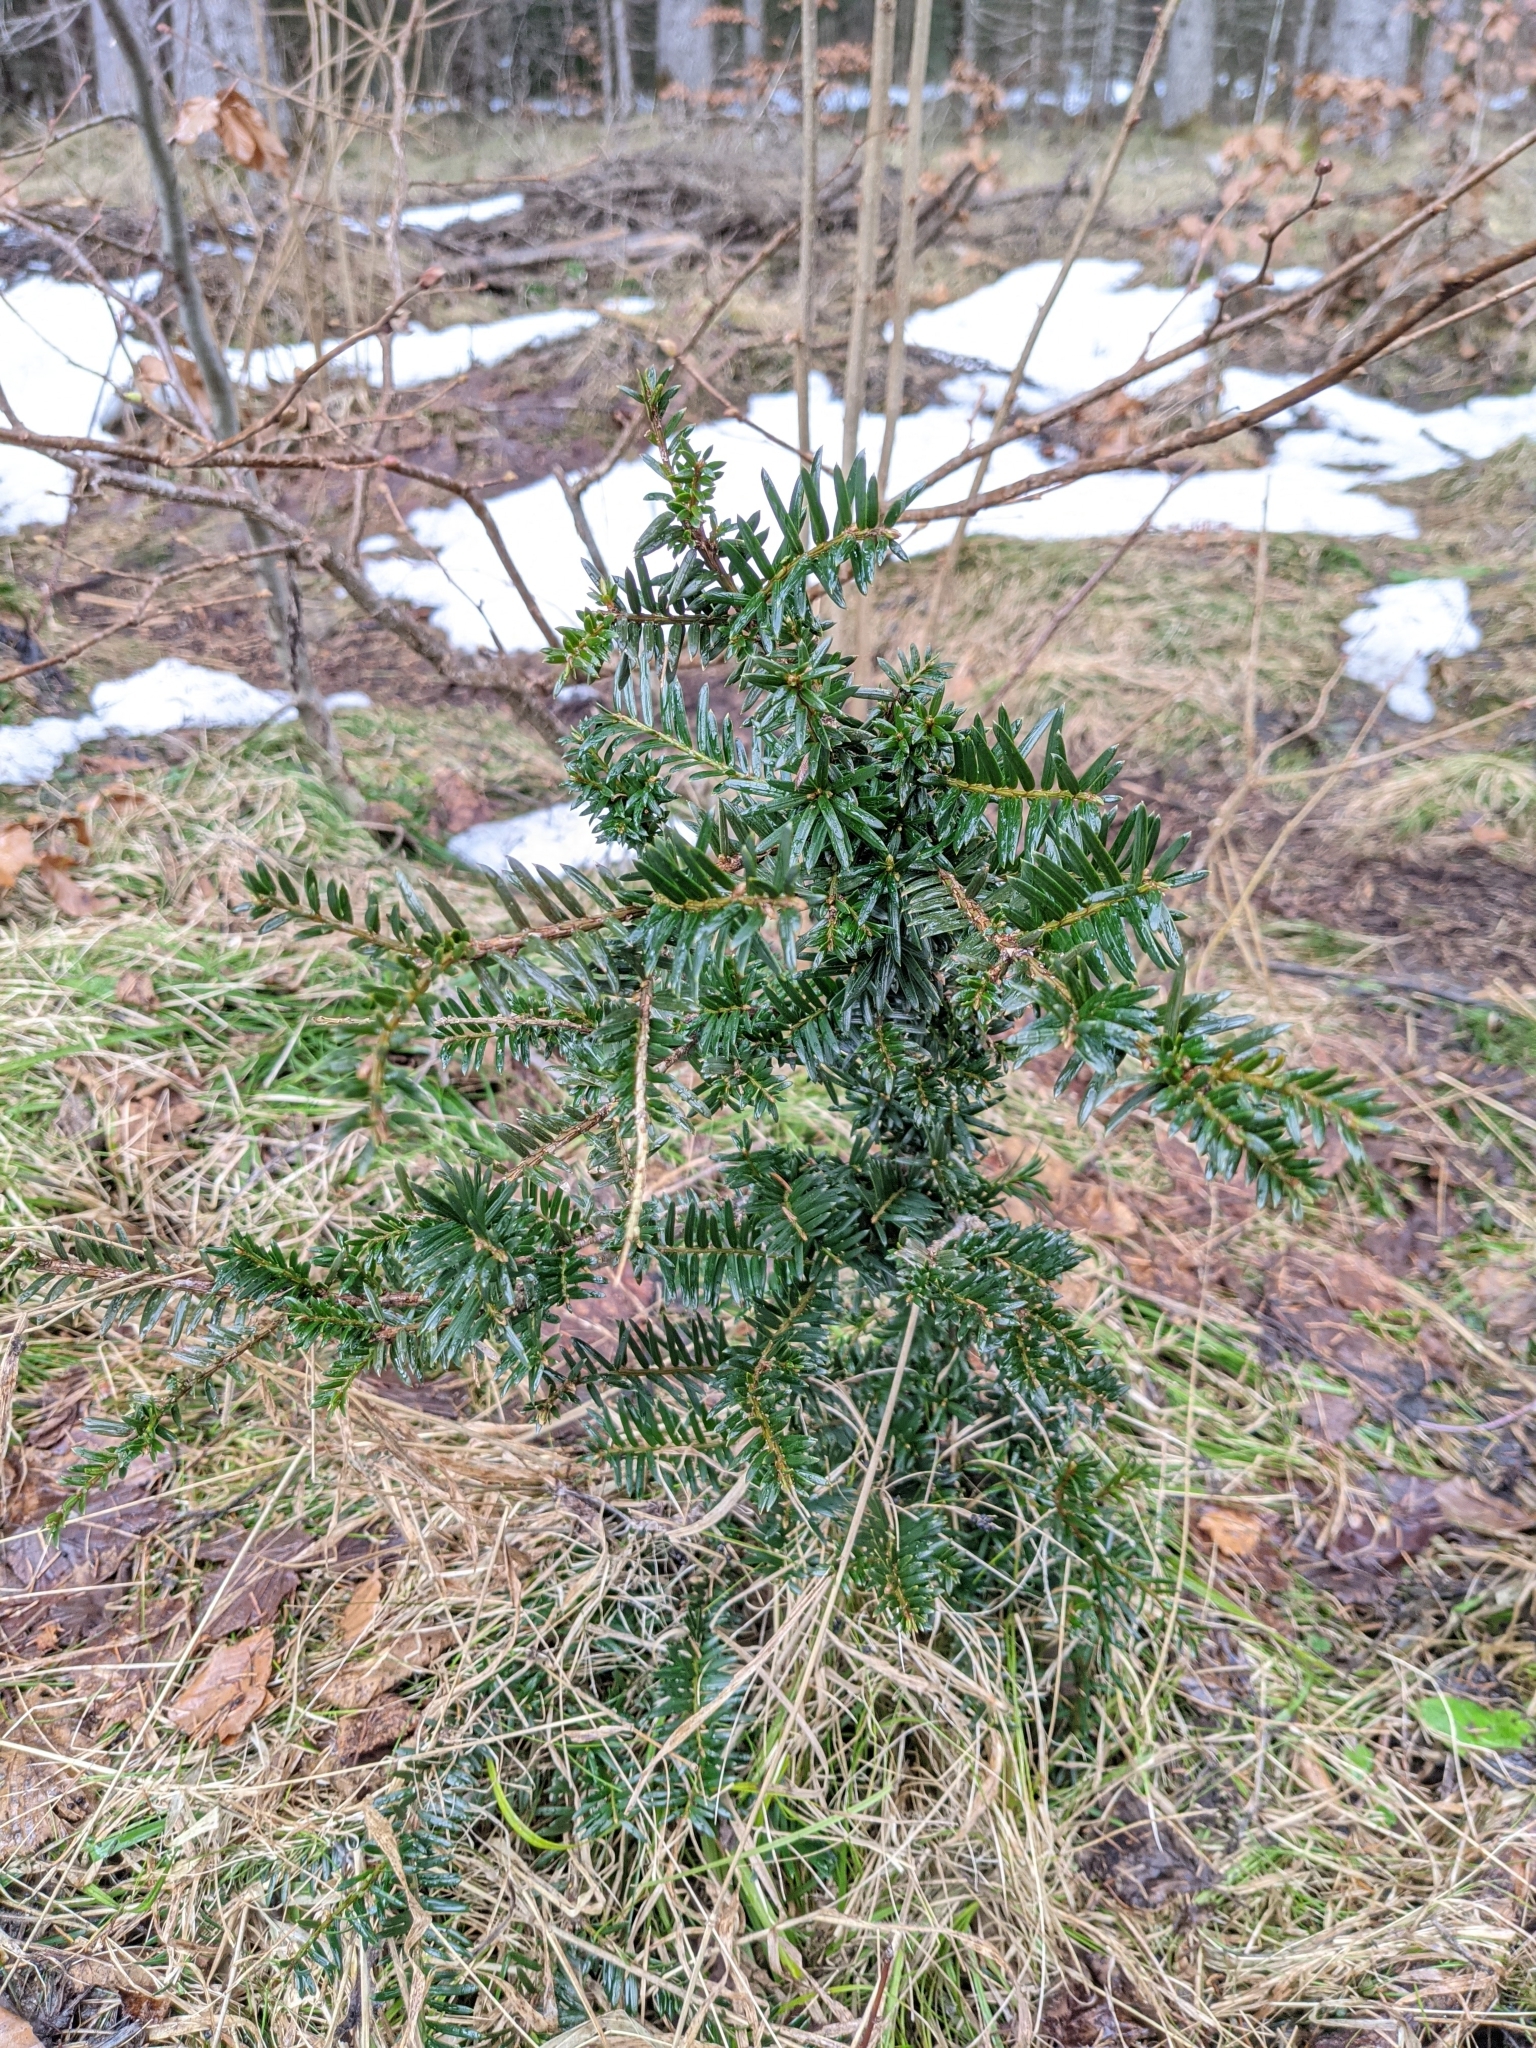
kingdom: Plantae
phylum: Tracheophyta
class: Pinopsida
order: Pinales
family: Taxaceae
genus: Taxus
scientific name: Taxus baccata
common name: Yew
